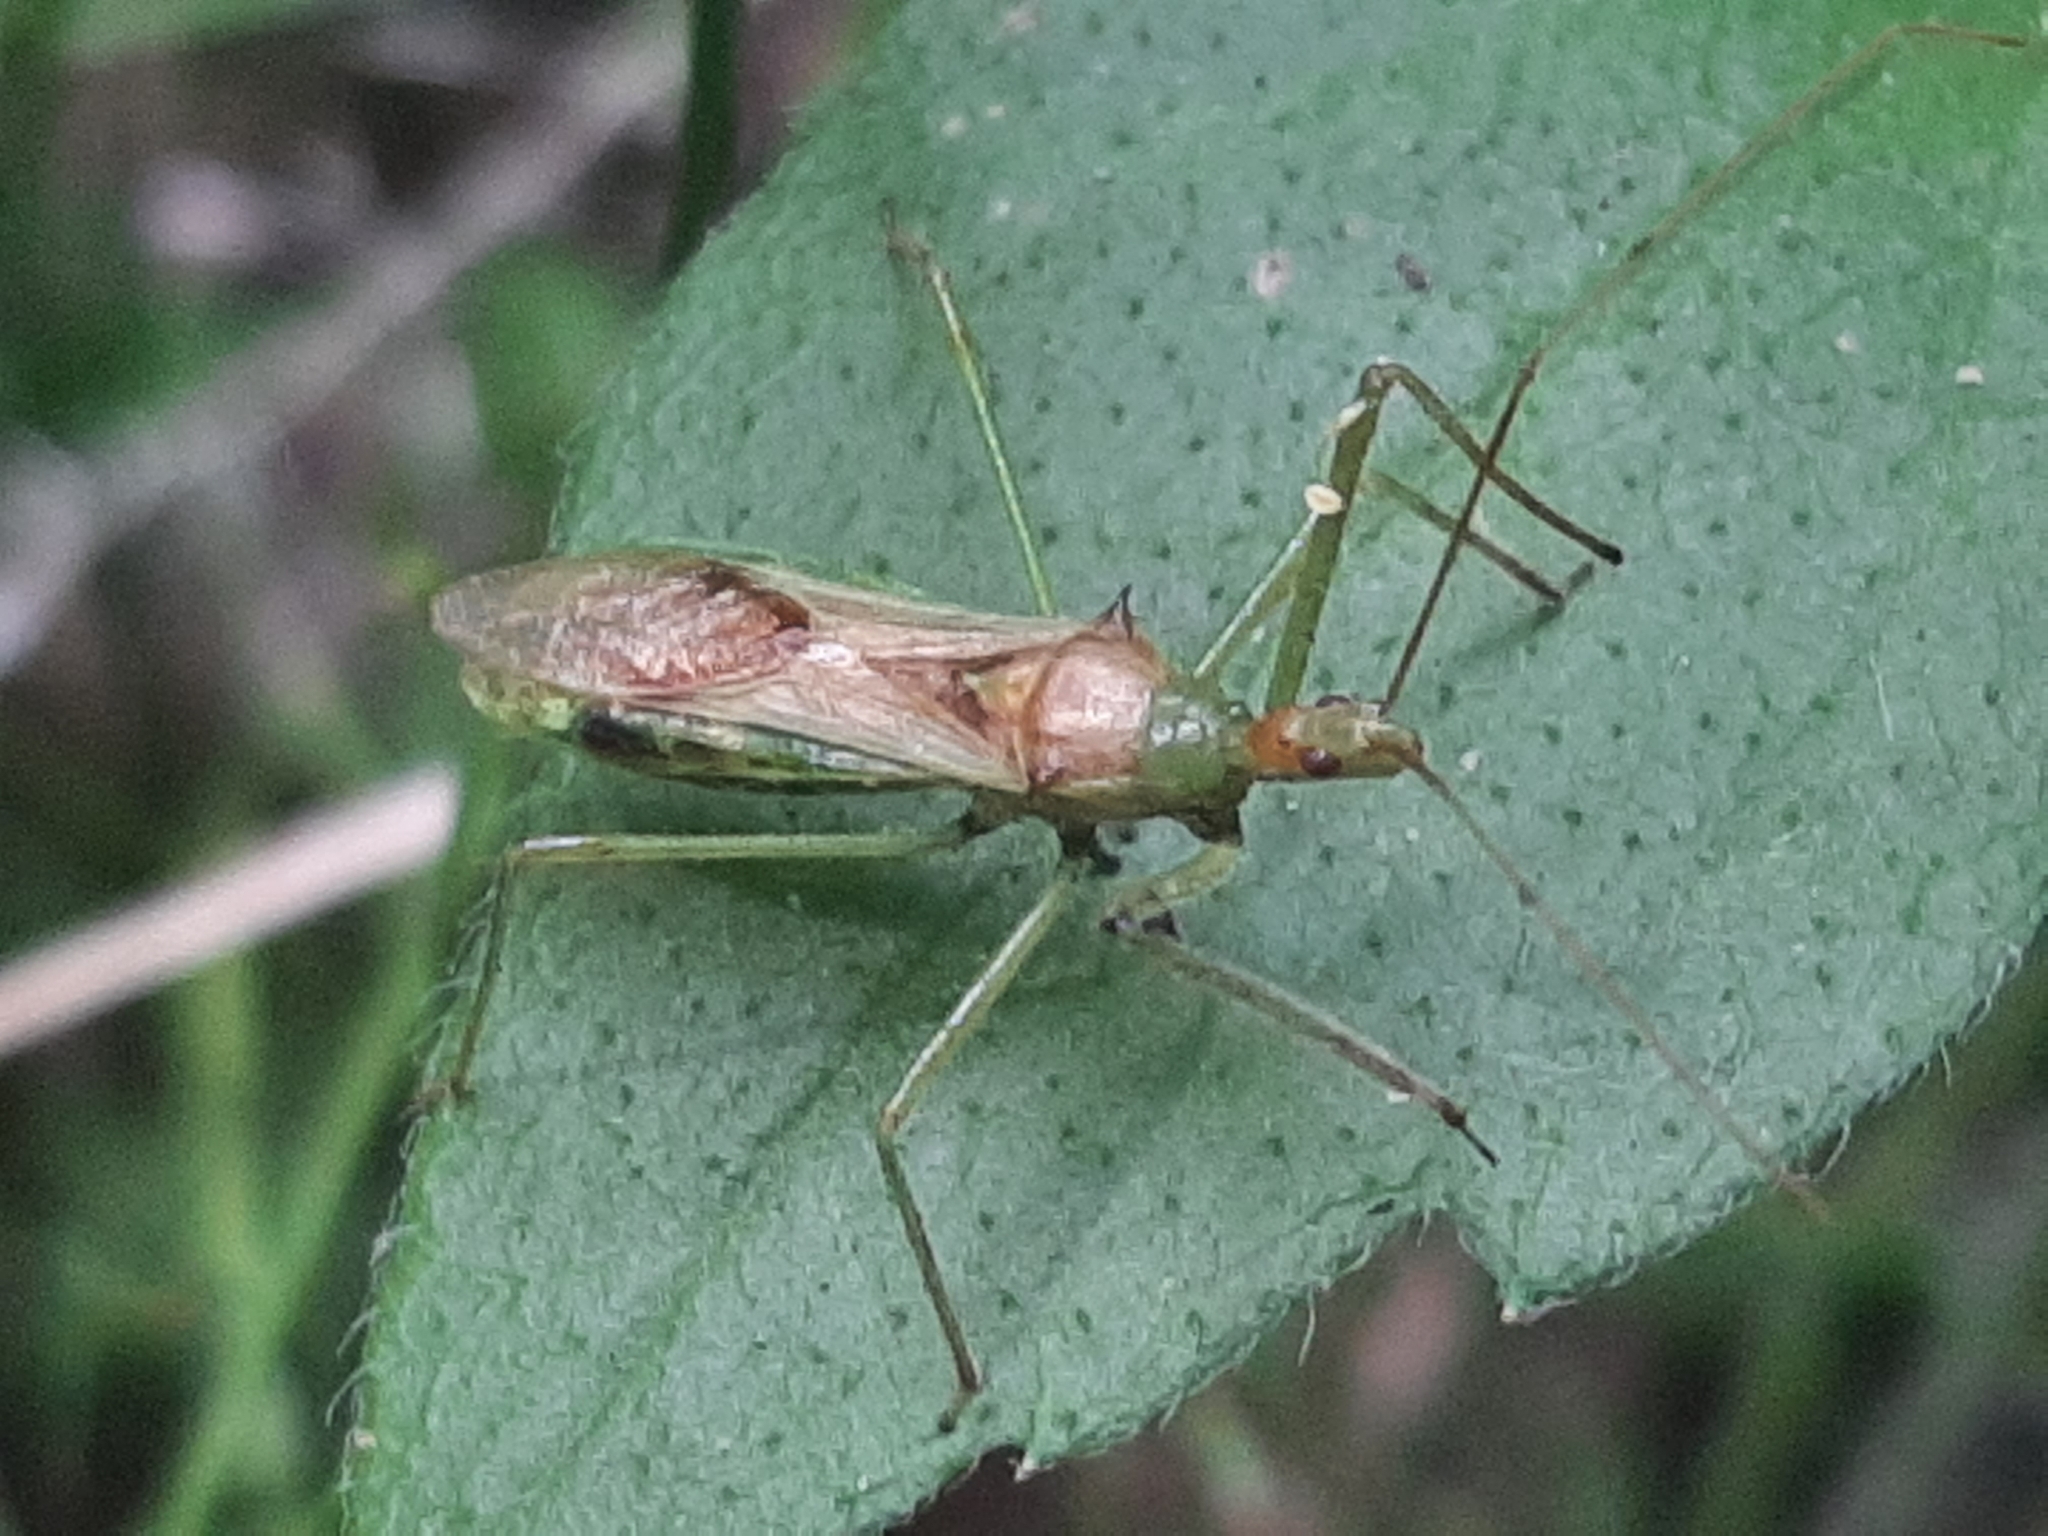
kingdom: Animalia
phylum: Arthropoda
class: Insecta
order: Hemiptera
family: Reduviidae
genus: Zelus
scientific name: Zelus luridus
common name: Pale green assassin bug
